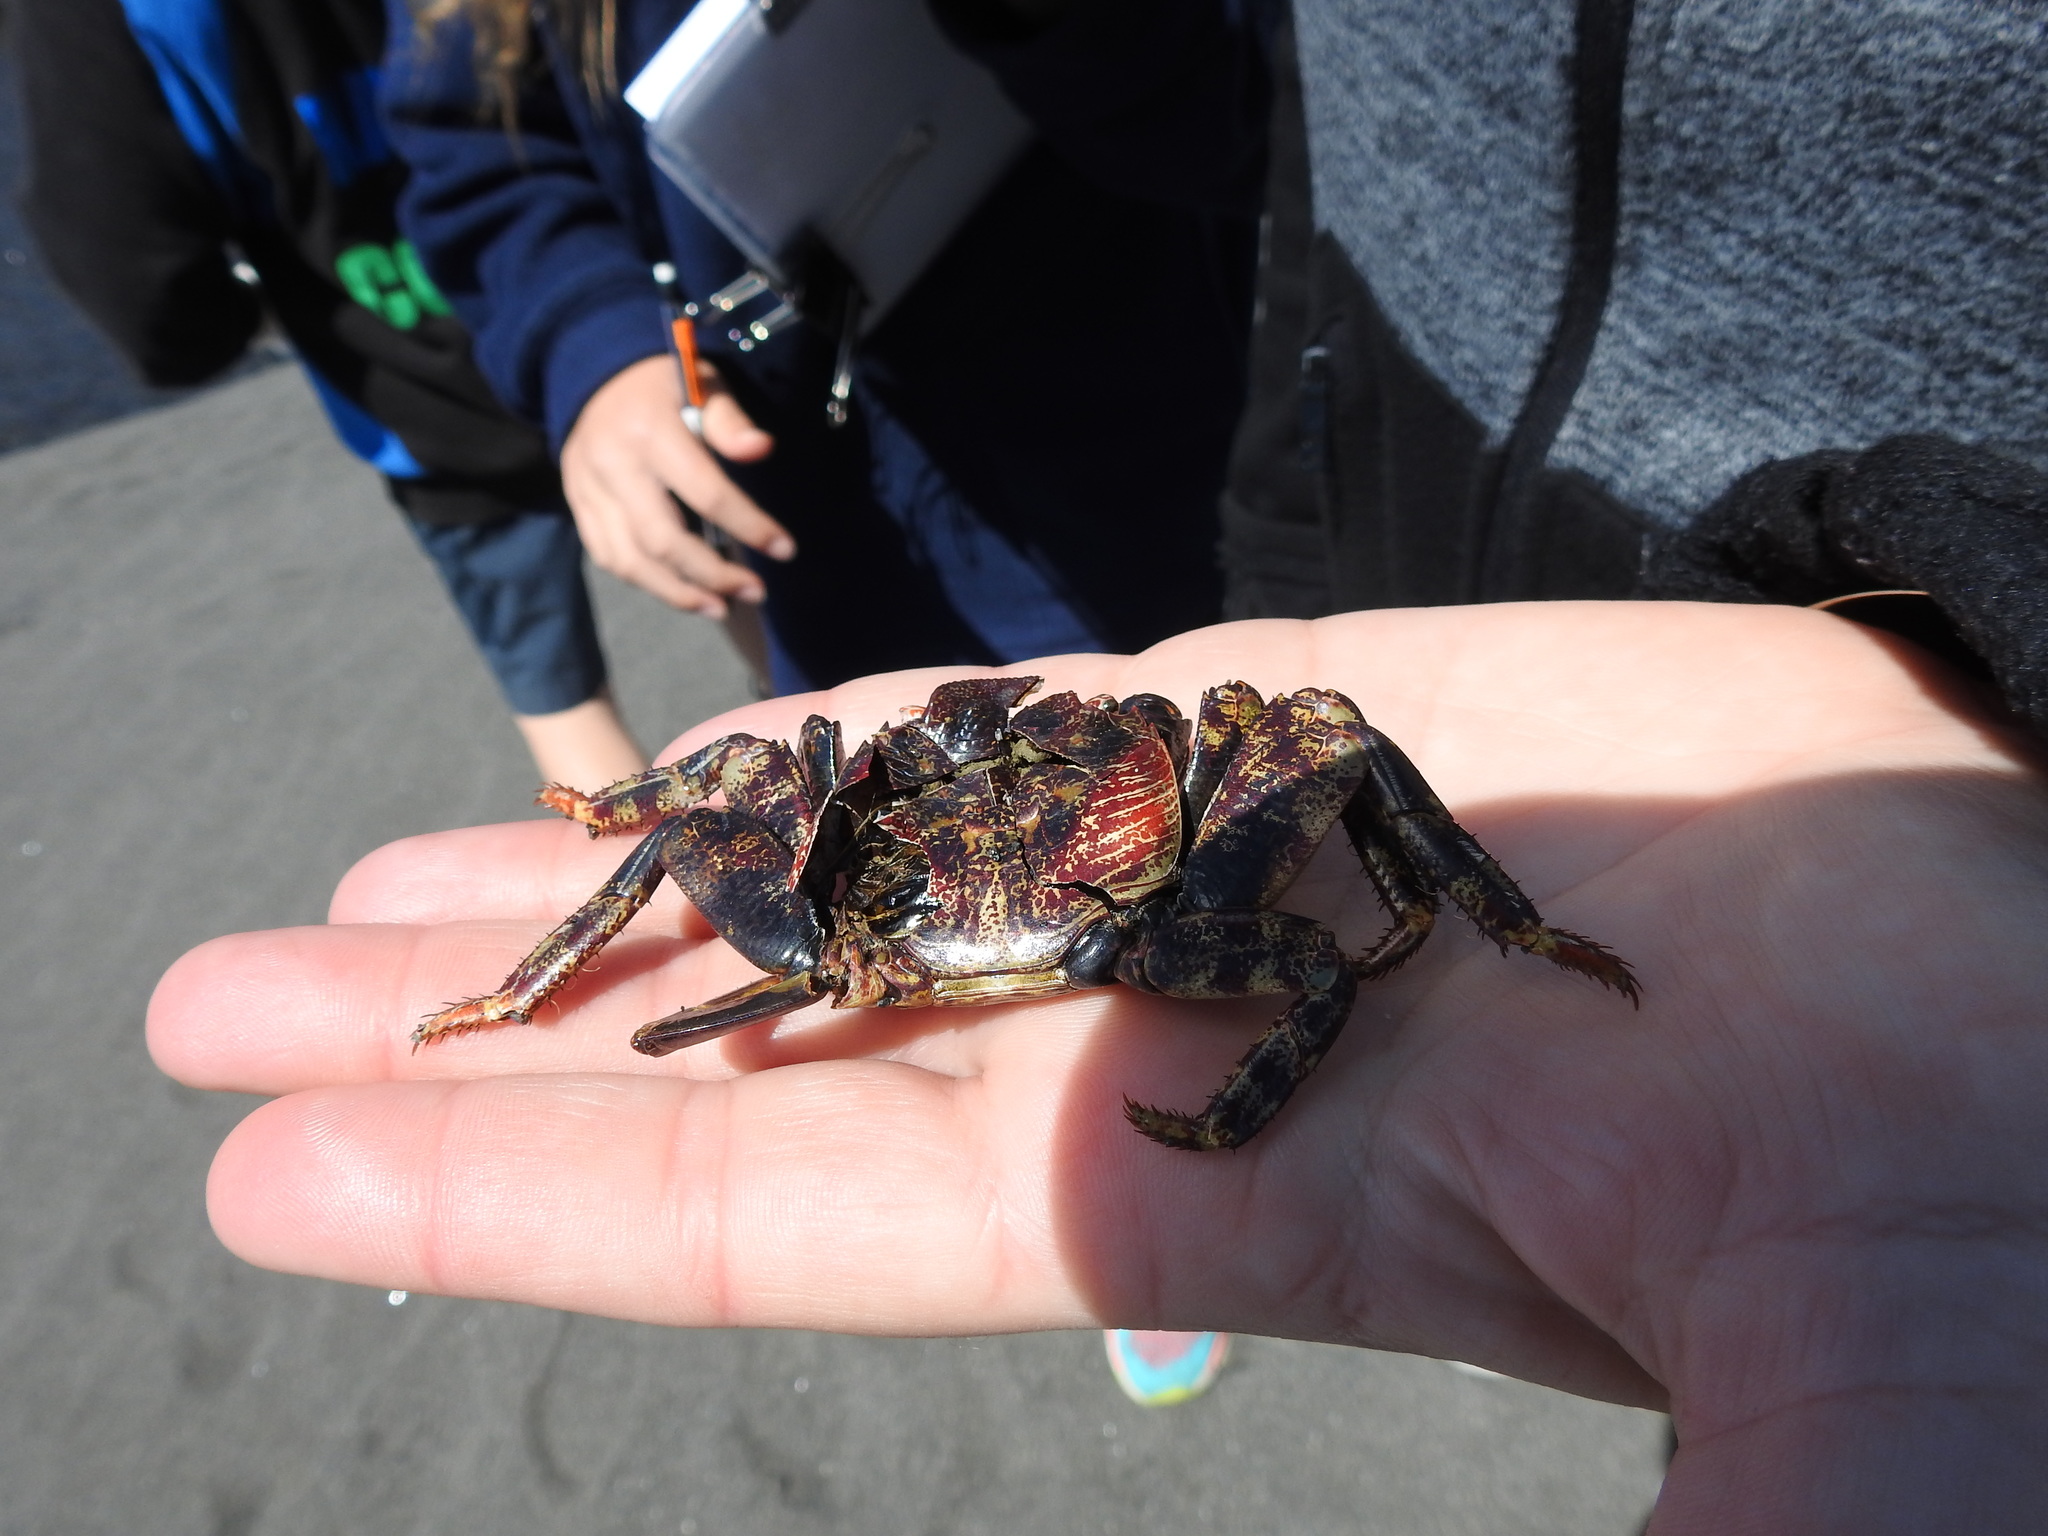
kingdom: Animalia
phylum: Arthropoda
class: Malacostraca
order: Decapoda
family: Grapsidae
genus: Leptograpsus
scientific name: Leptograpsus variegatus
